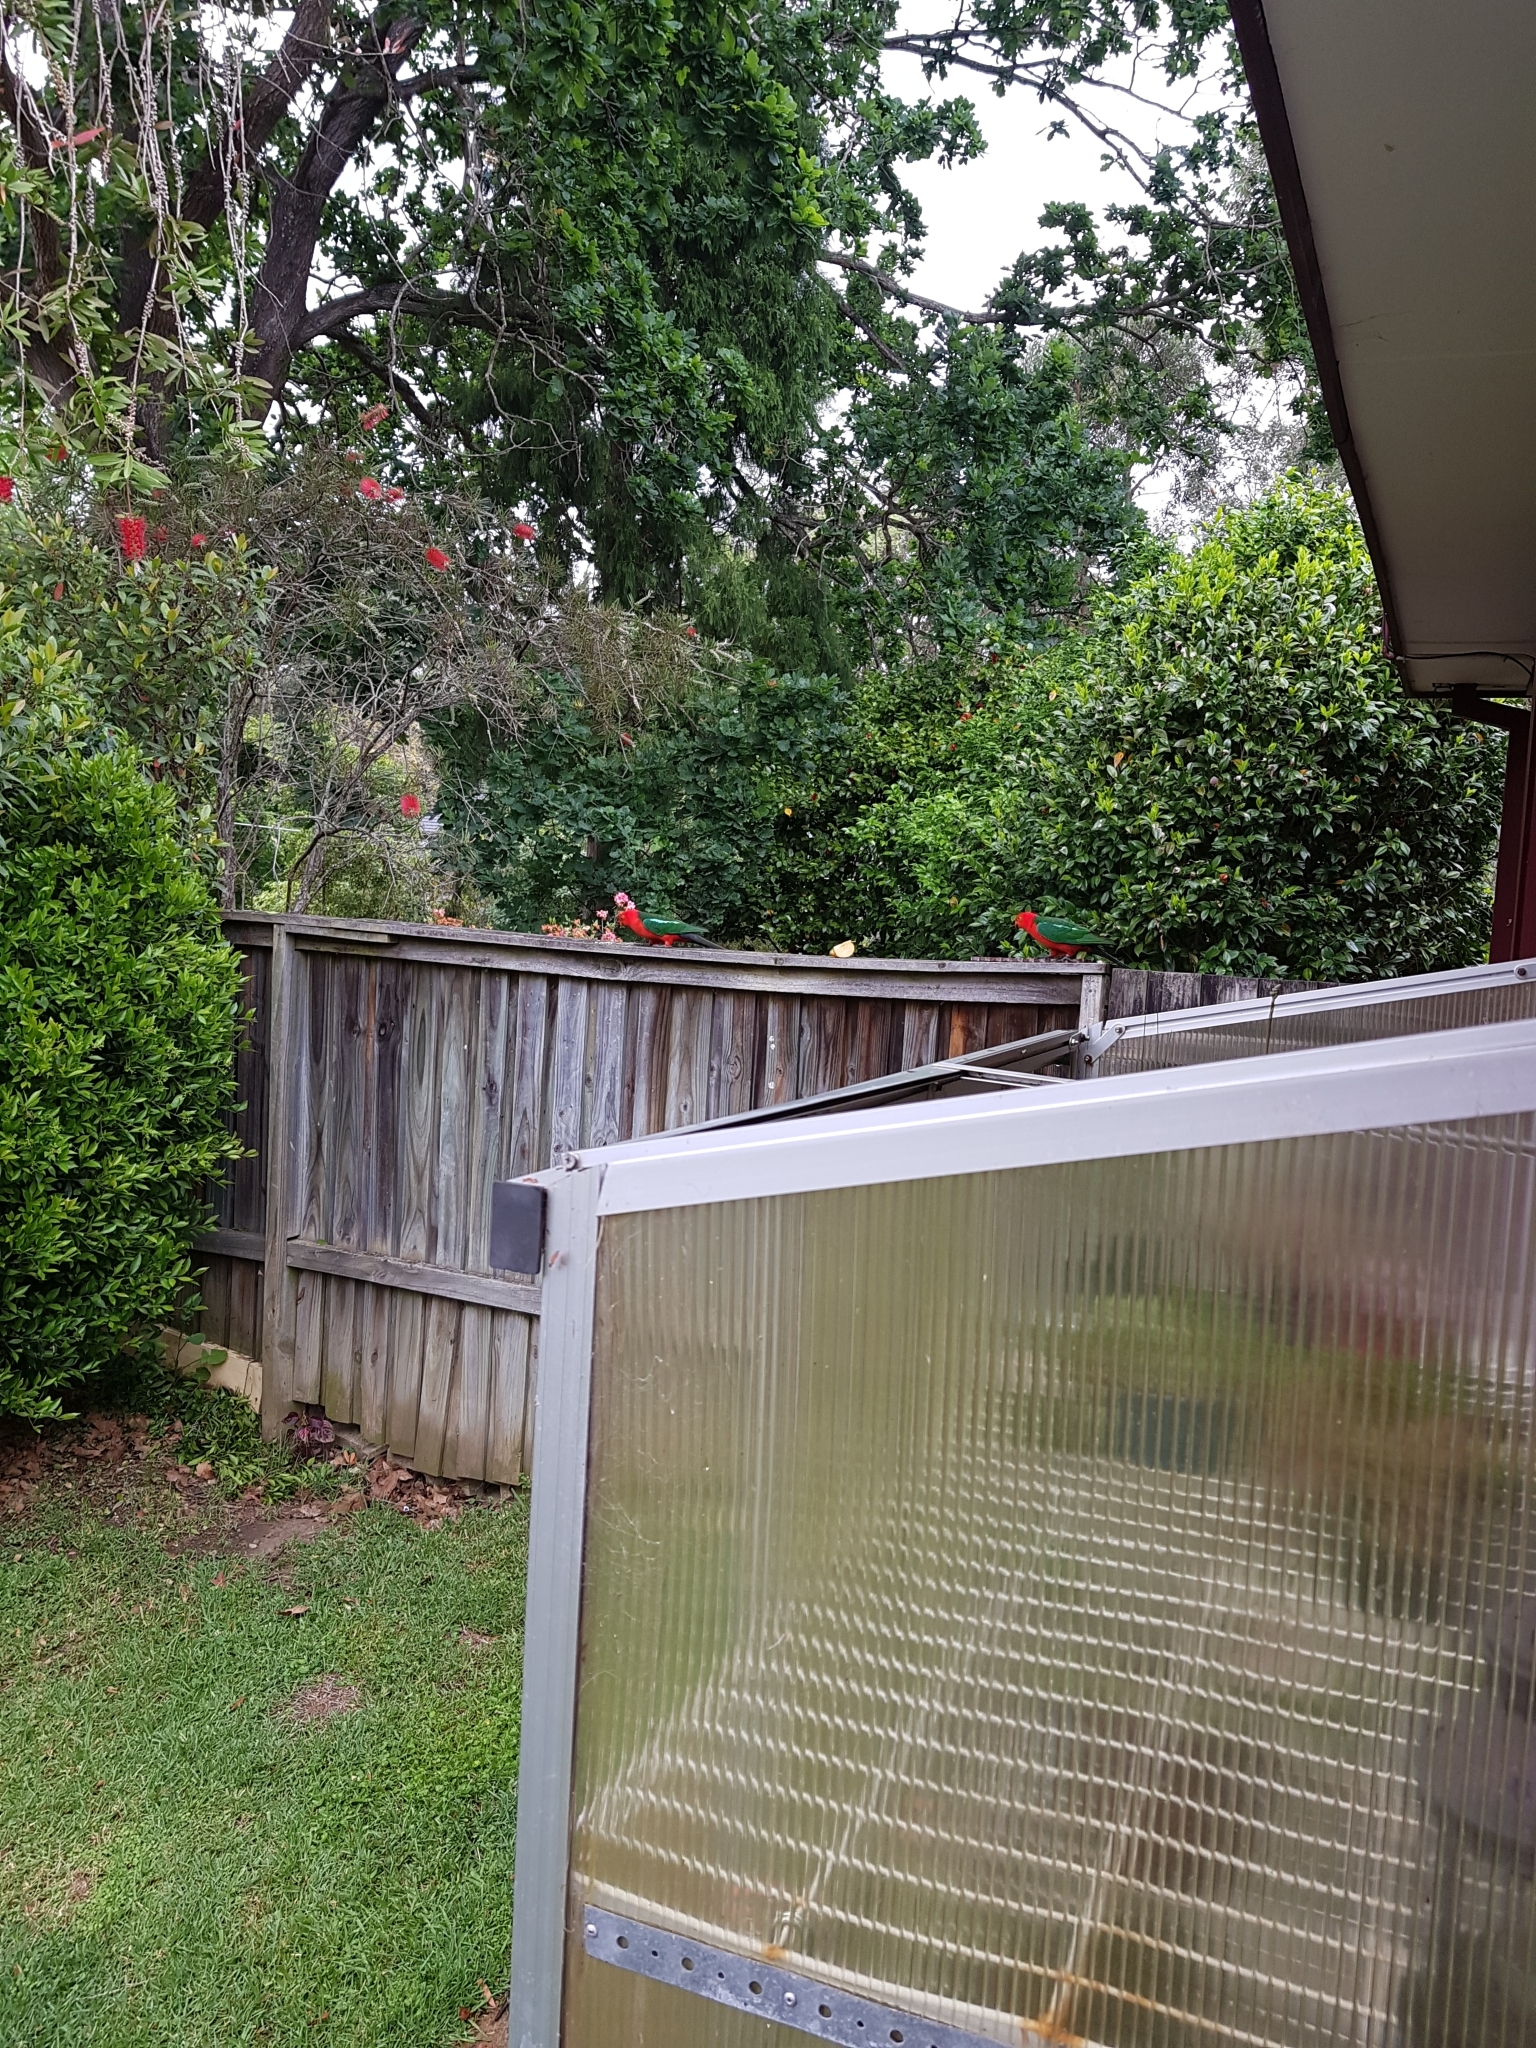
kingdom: Animalia
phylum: Chordata
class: Aves
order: Psittaciformes
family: Psittacidae
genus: Alisterus
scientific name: Alisterus scapularis
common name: Australian king parrot
